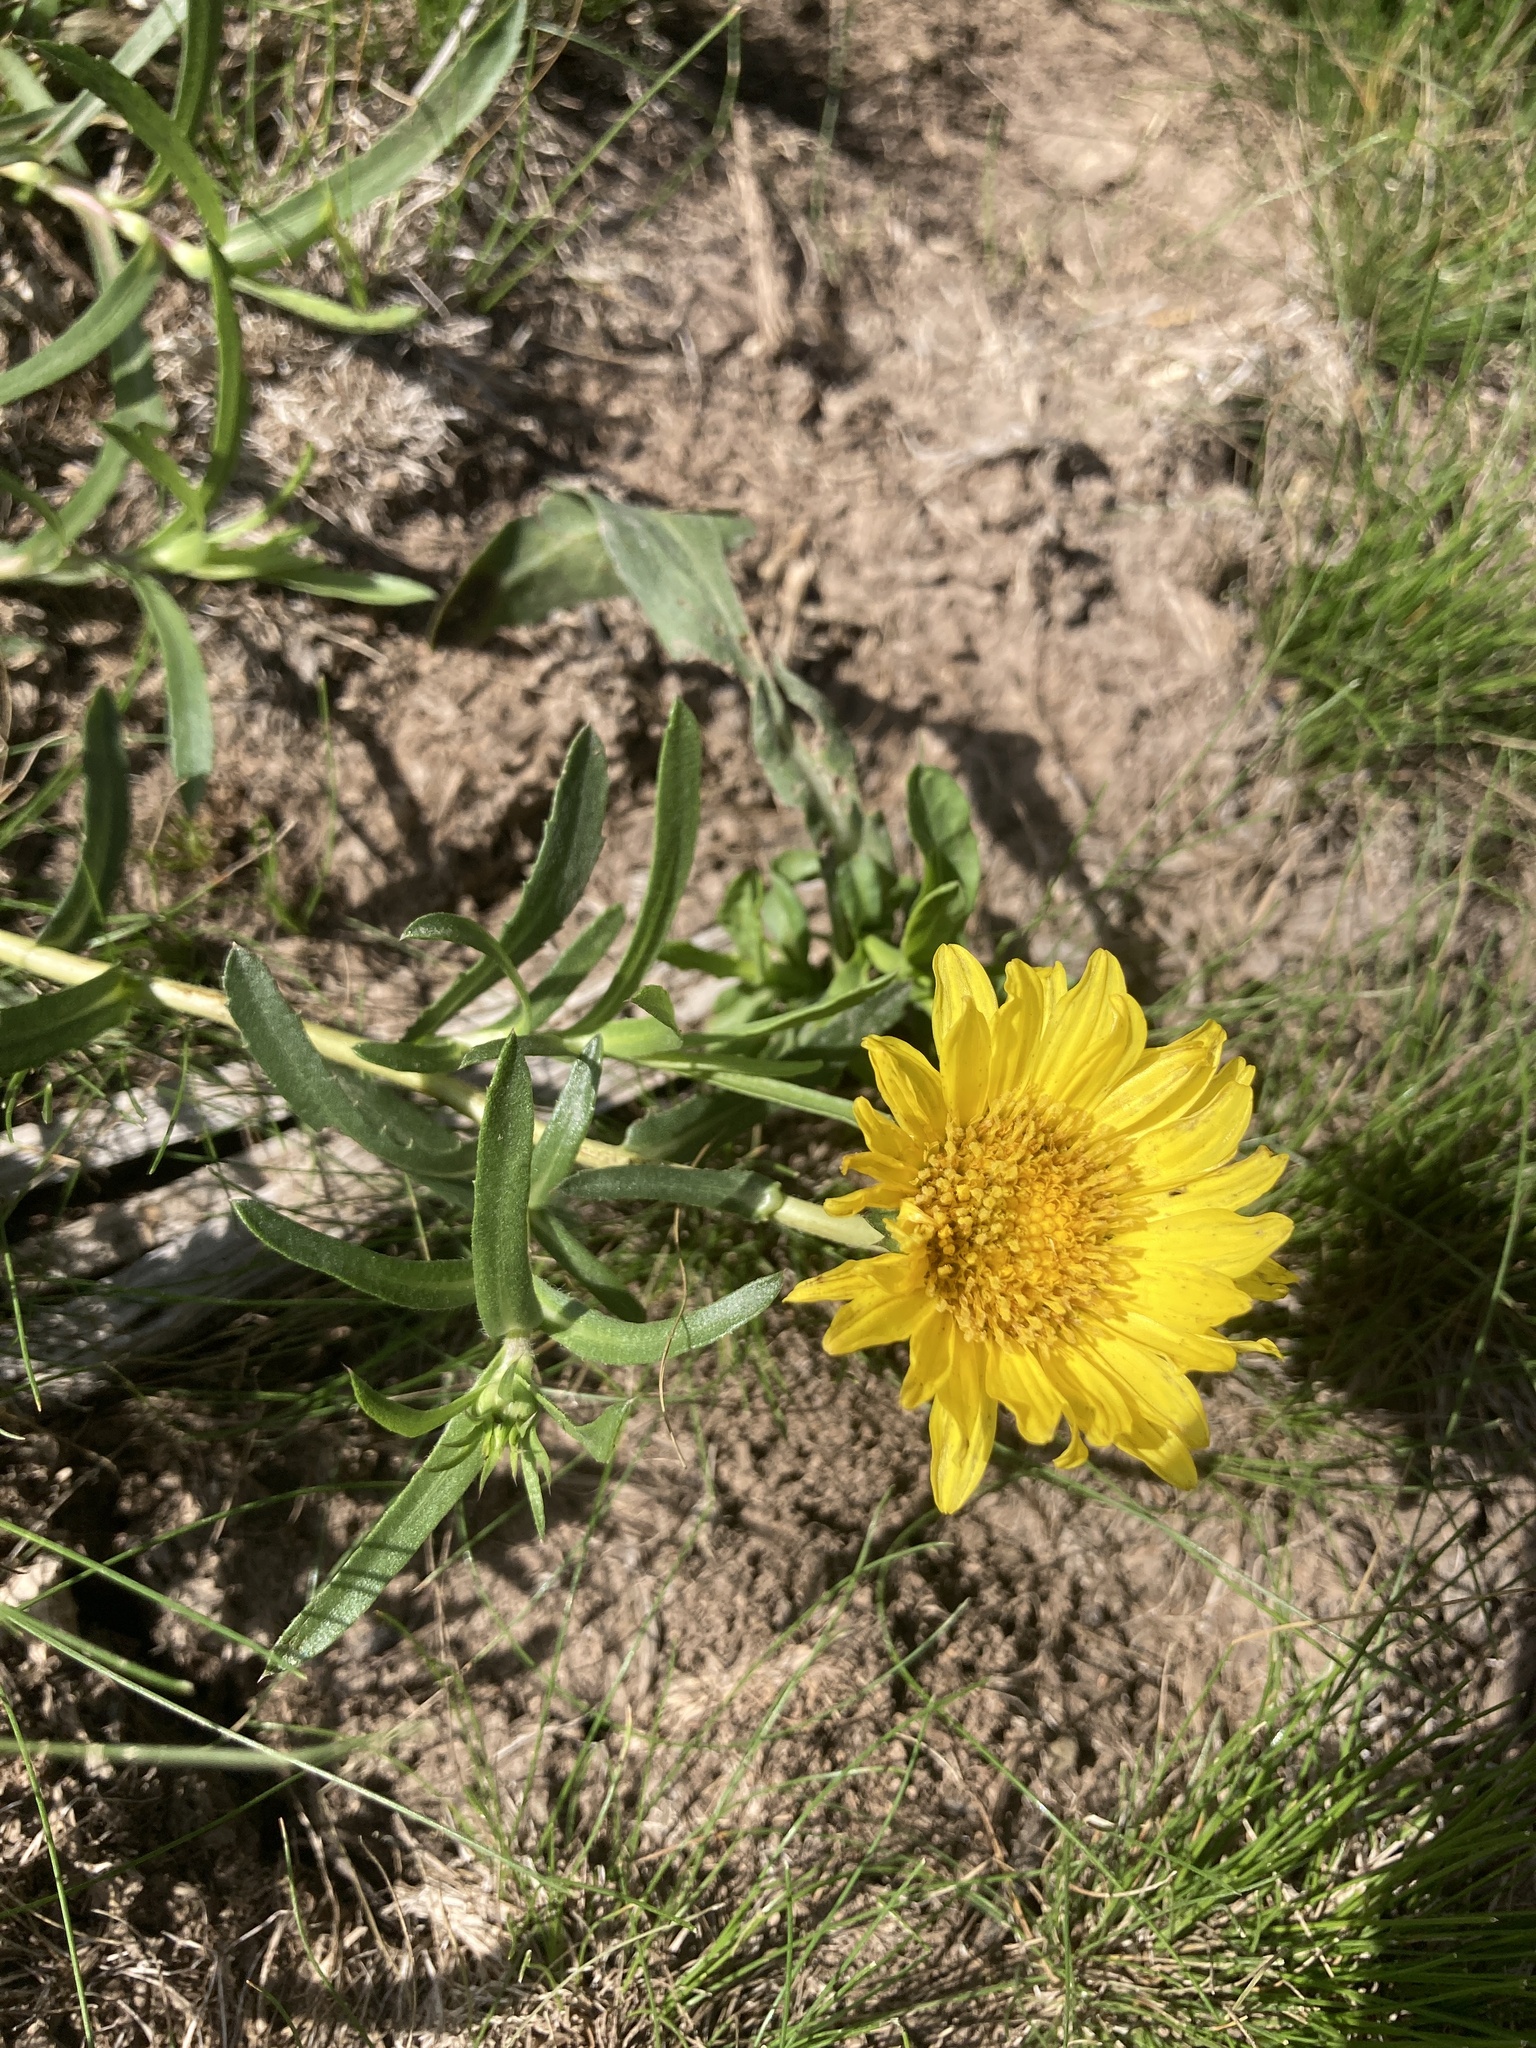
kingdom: Plantae
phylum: Tracheophyta
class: Magnoliopsida
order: Asterales
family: Asteraceae
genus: Grindelia
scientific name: Grindelia scorzonerifolia
